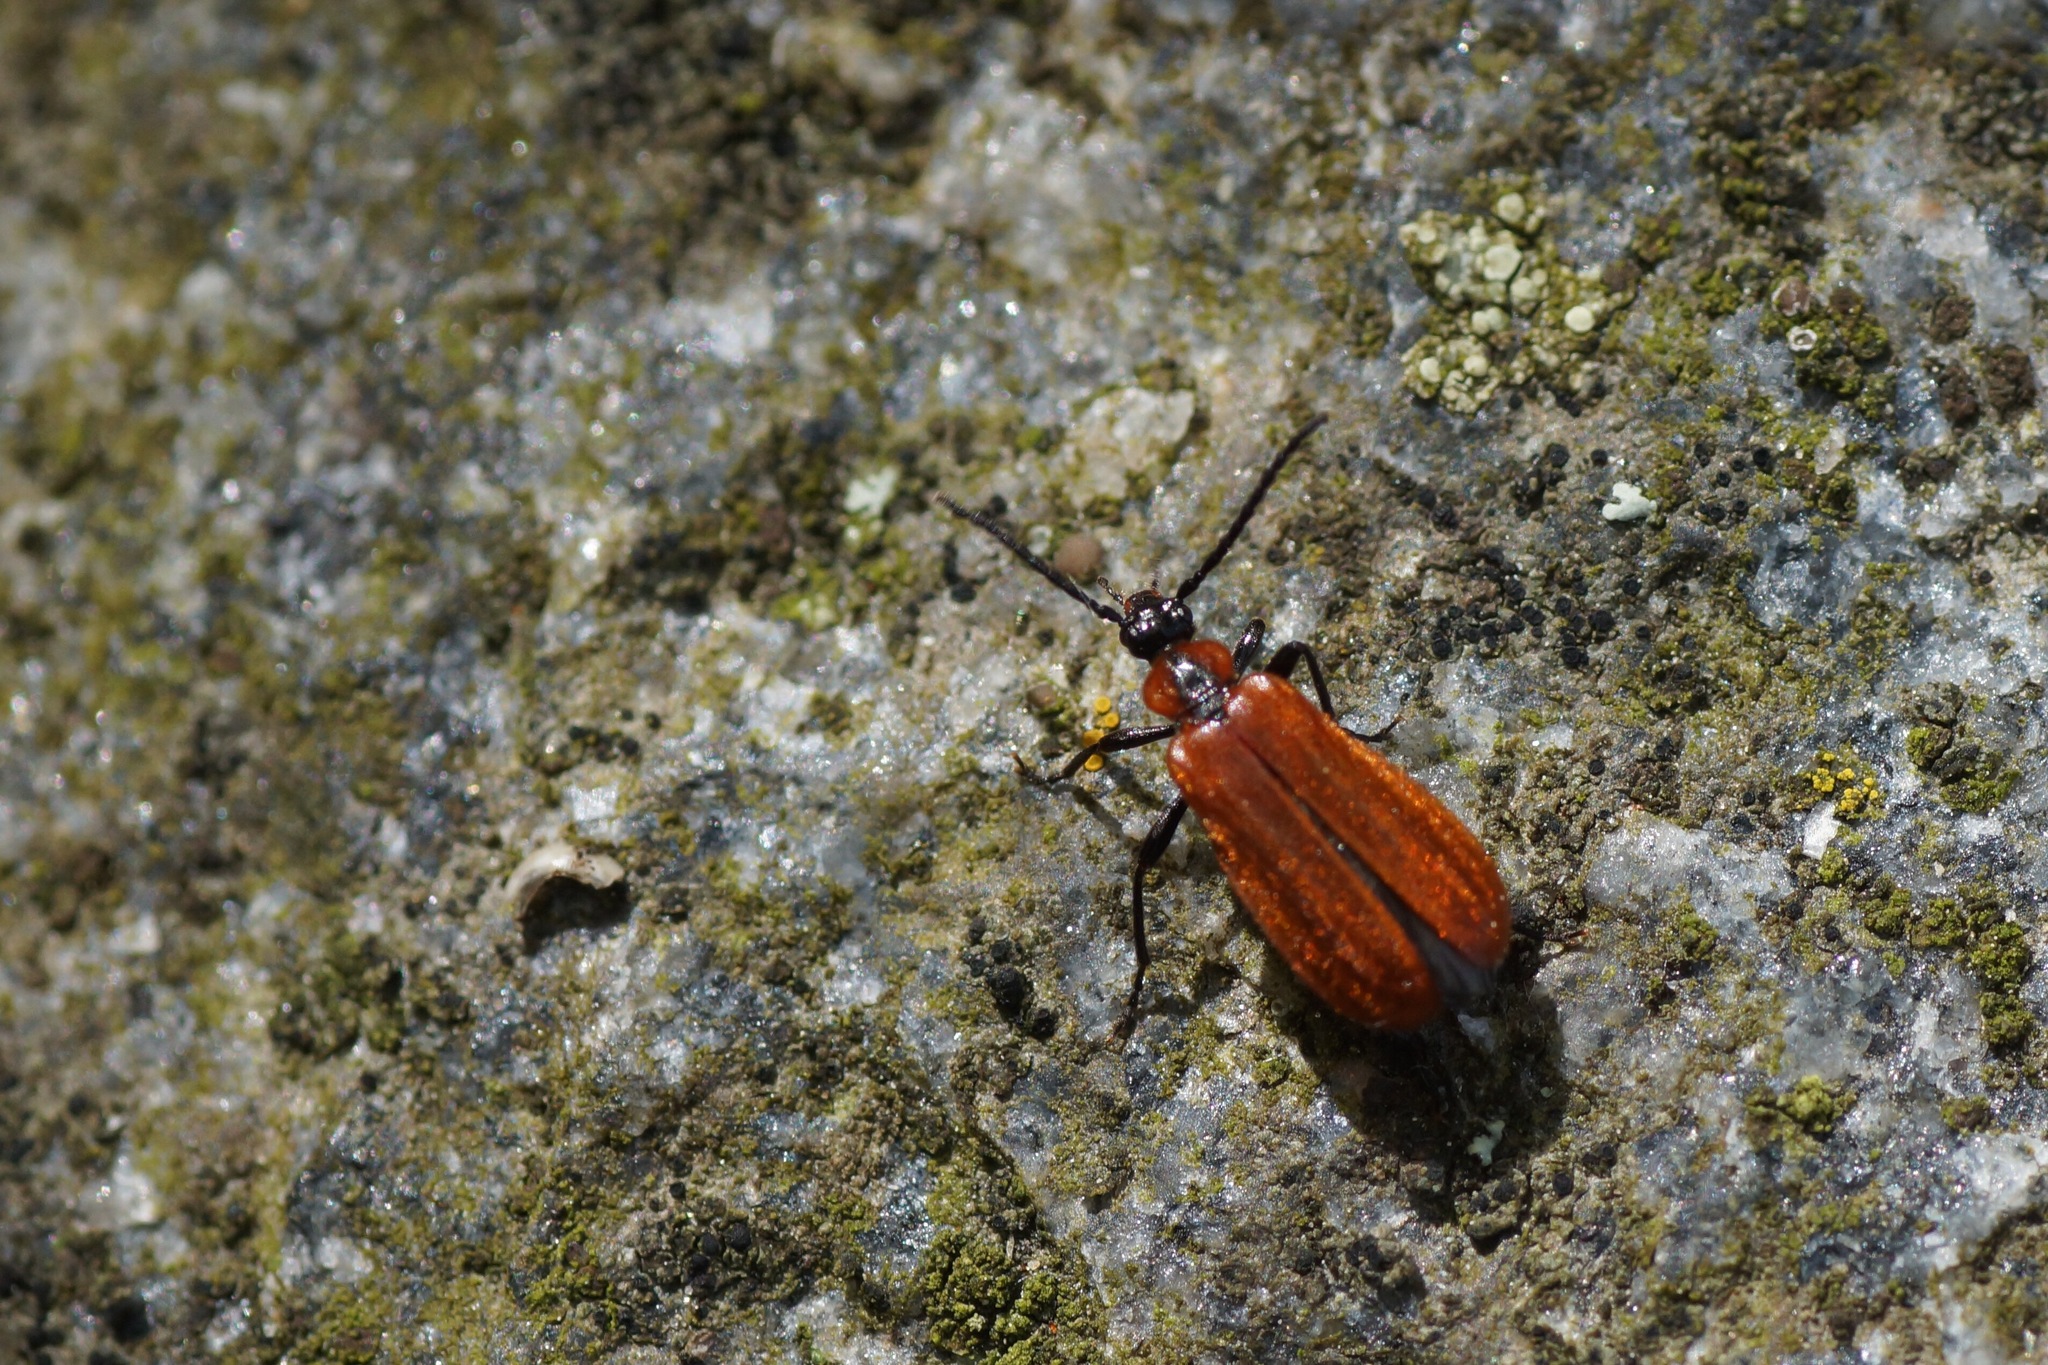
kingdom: Animalia
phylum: Arthropoda
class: Insecta
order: Coleoptera
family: Pyrochroidae
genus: Schizotus
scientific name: Schizotus pectinicornis
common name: Scarce cardinal beetle
